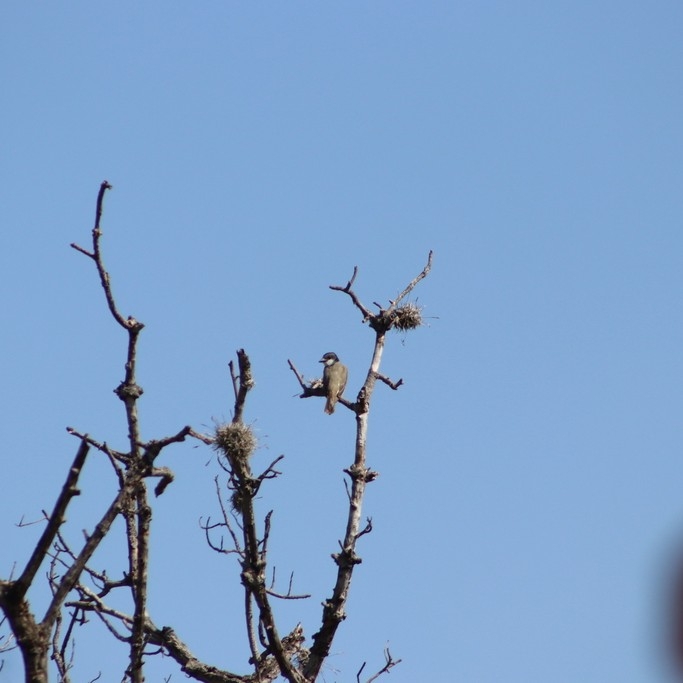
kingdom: Animalia
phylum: Chordata
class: Aves
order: Passeriformes
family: Tyrannidae
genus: Tyrannus
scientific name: Tyrannus crassirostris
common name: Thick-billed kingbird
